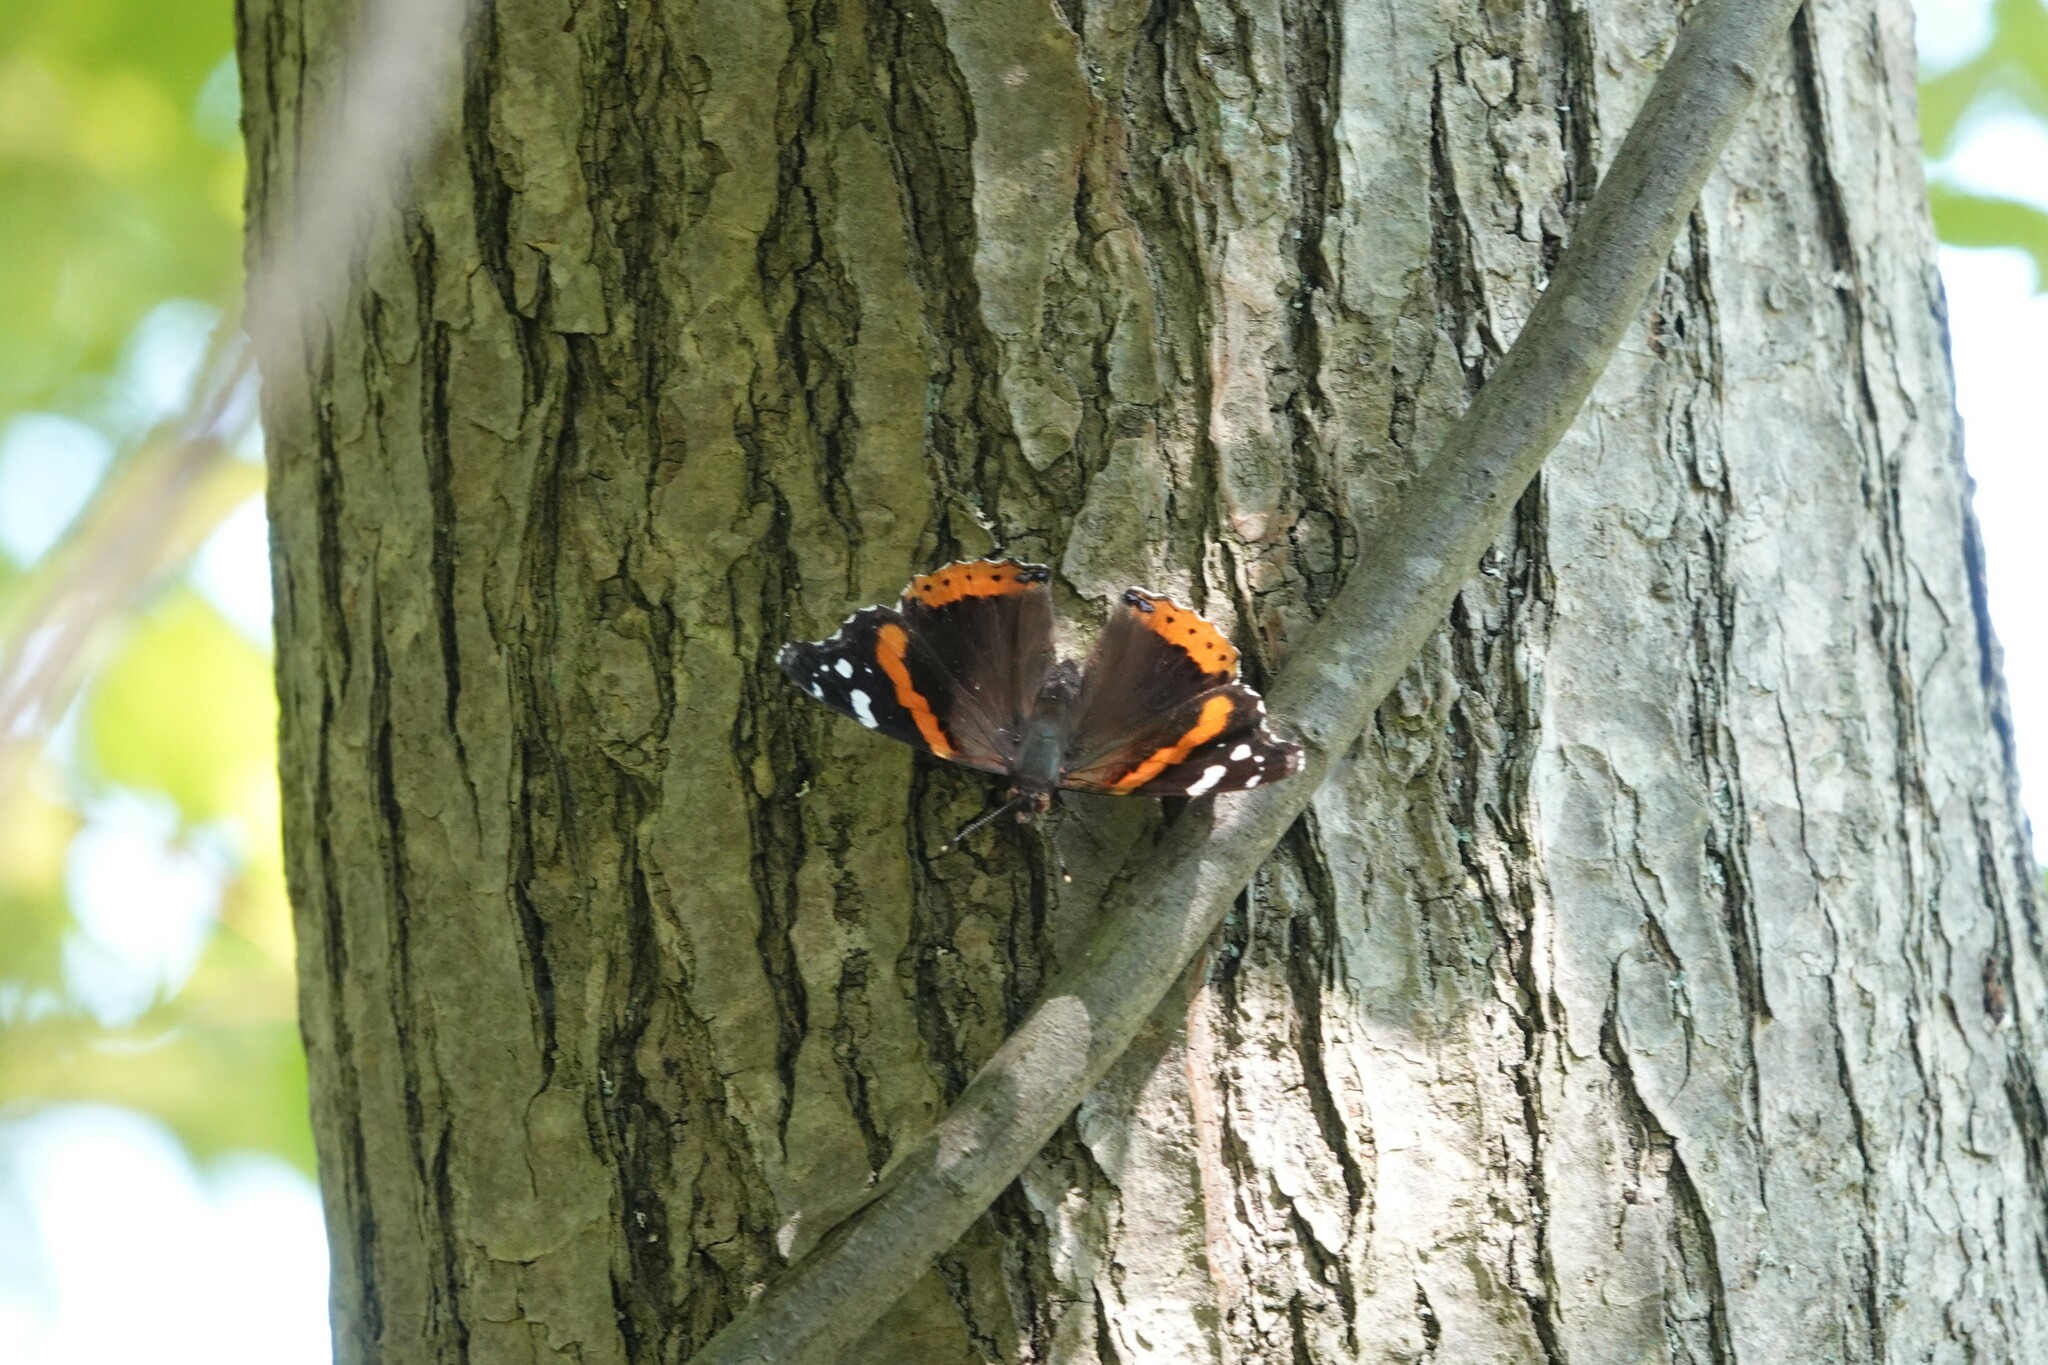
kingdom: Animalia
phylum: Arthropoda
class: Insecta
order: Lepidoptera
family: Nymphalidae
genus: Vanessa
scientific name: Vanessa atalanta
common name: Red admiral
